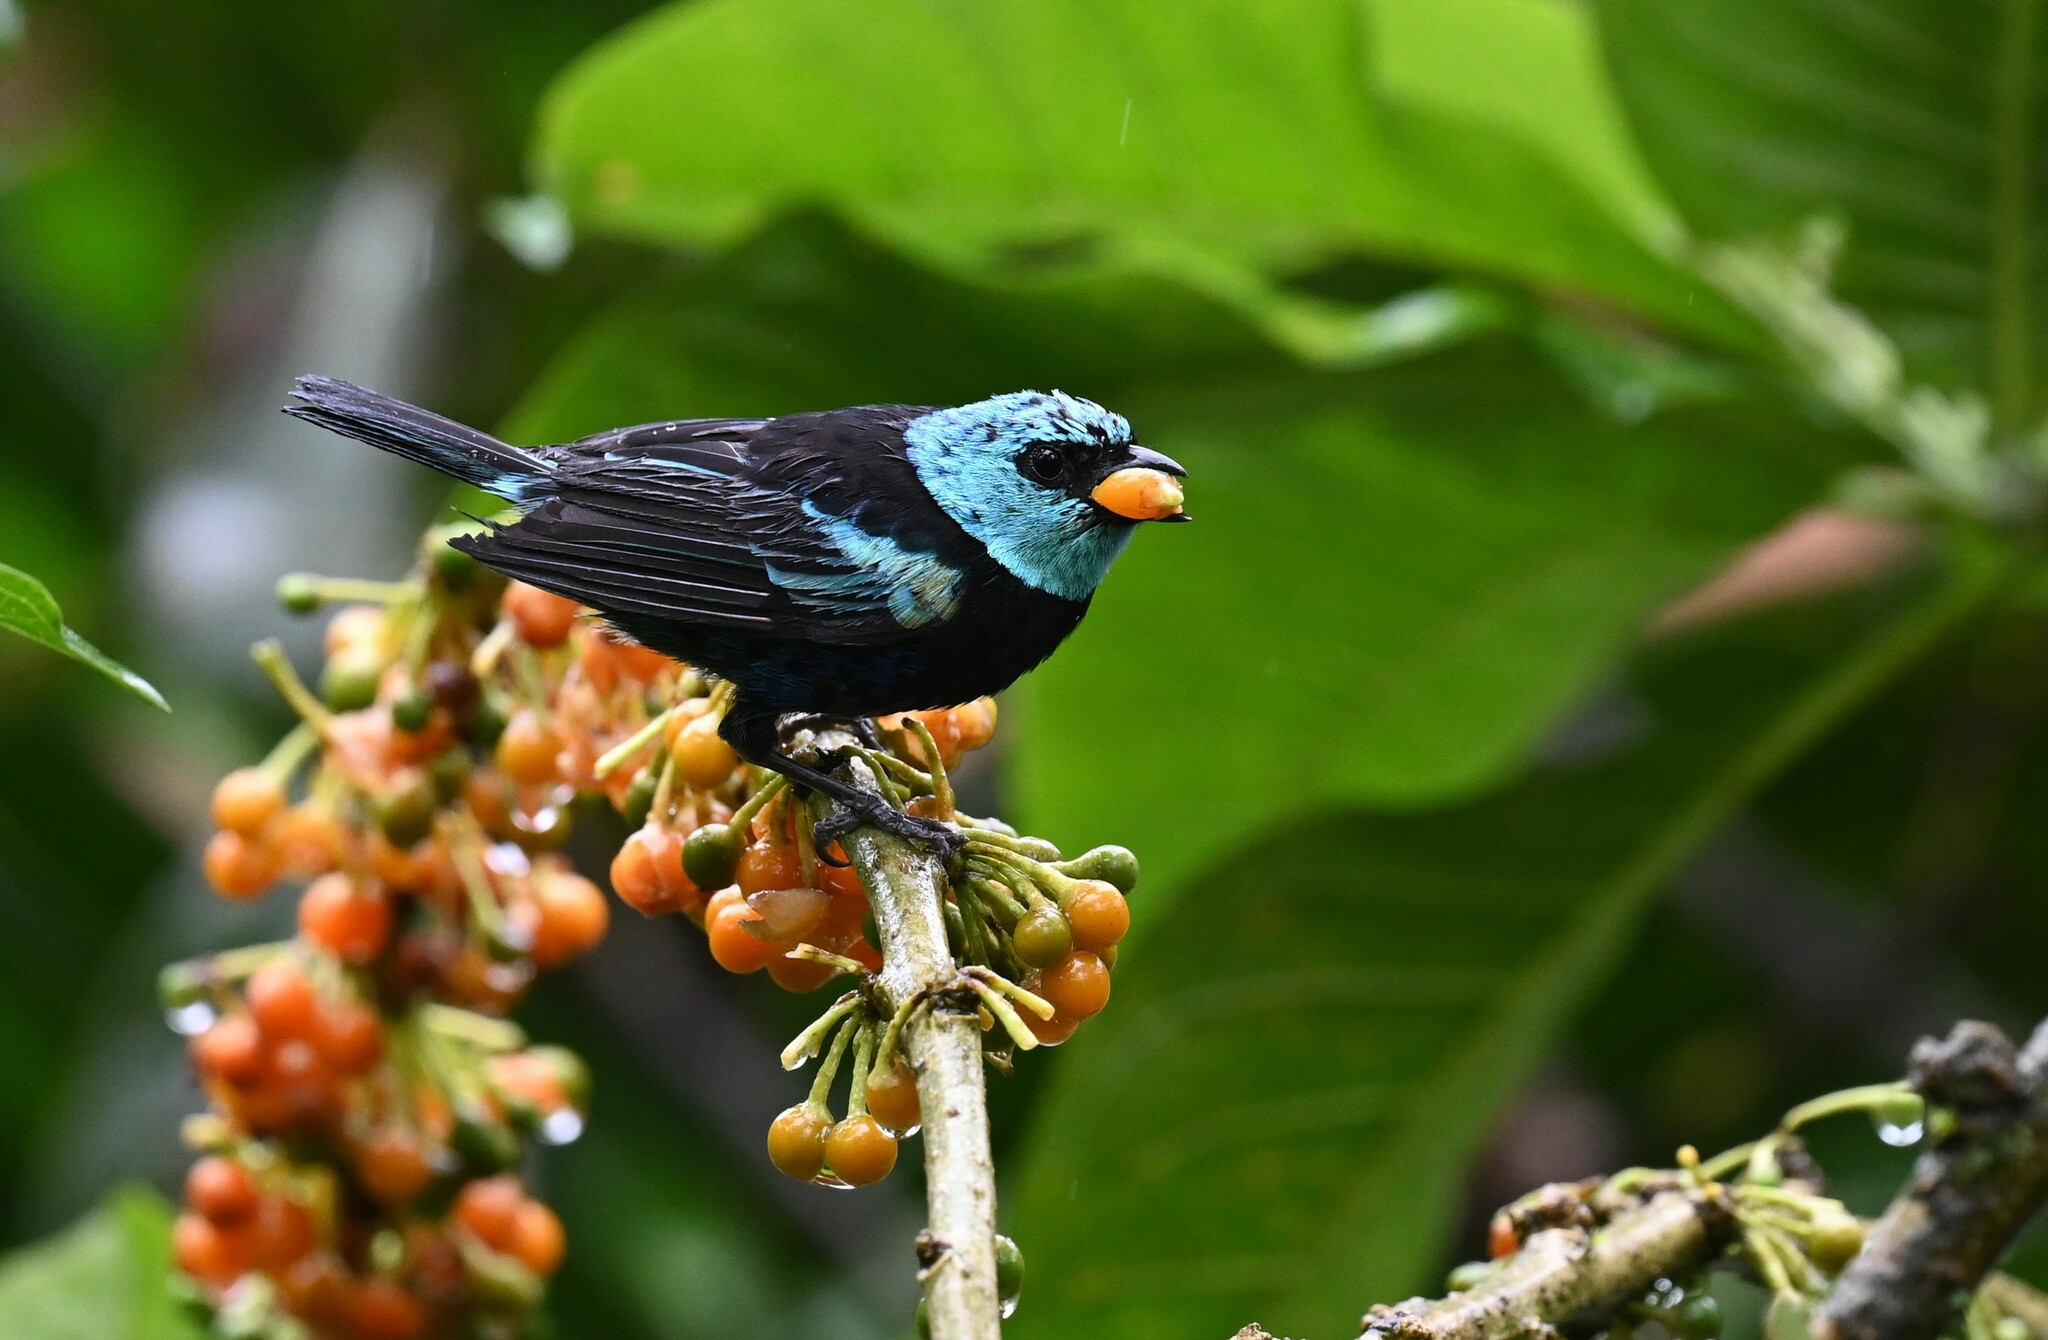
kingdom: Animalia
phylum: Chordata
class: Aves
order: Passeriformes
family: Thraupidae
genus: Stilpnia
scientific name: Stilpnia cyanicollis
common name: Blue-necked tanager
